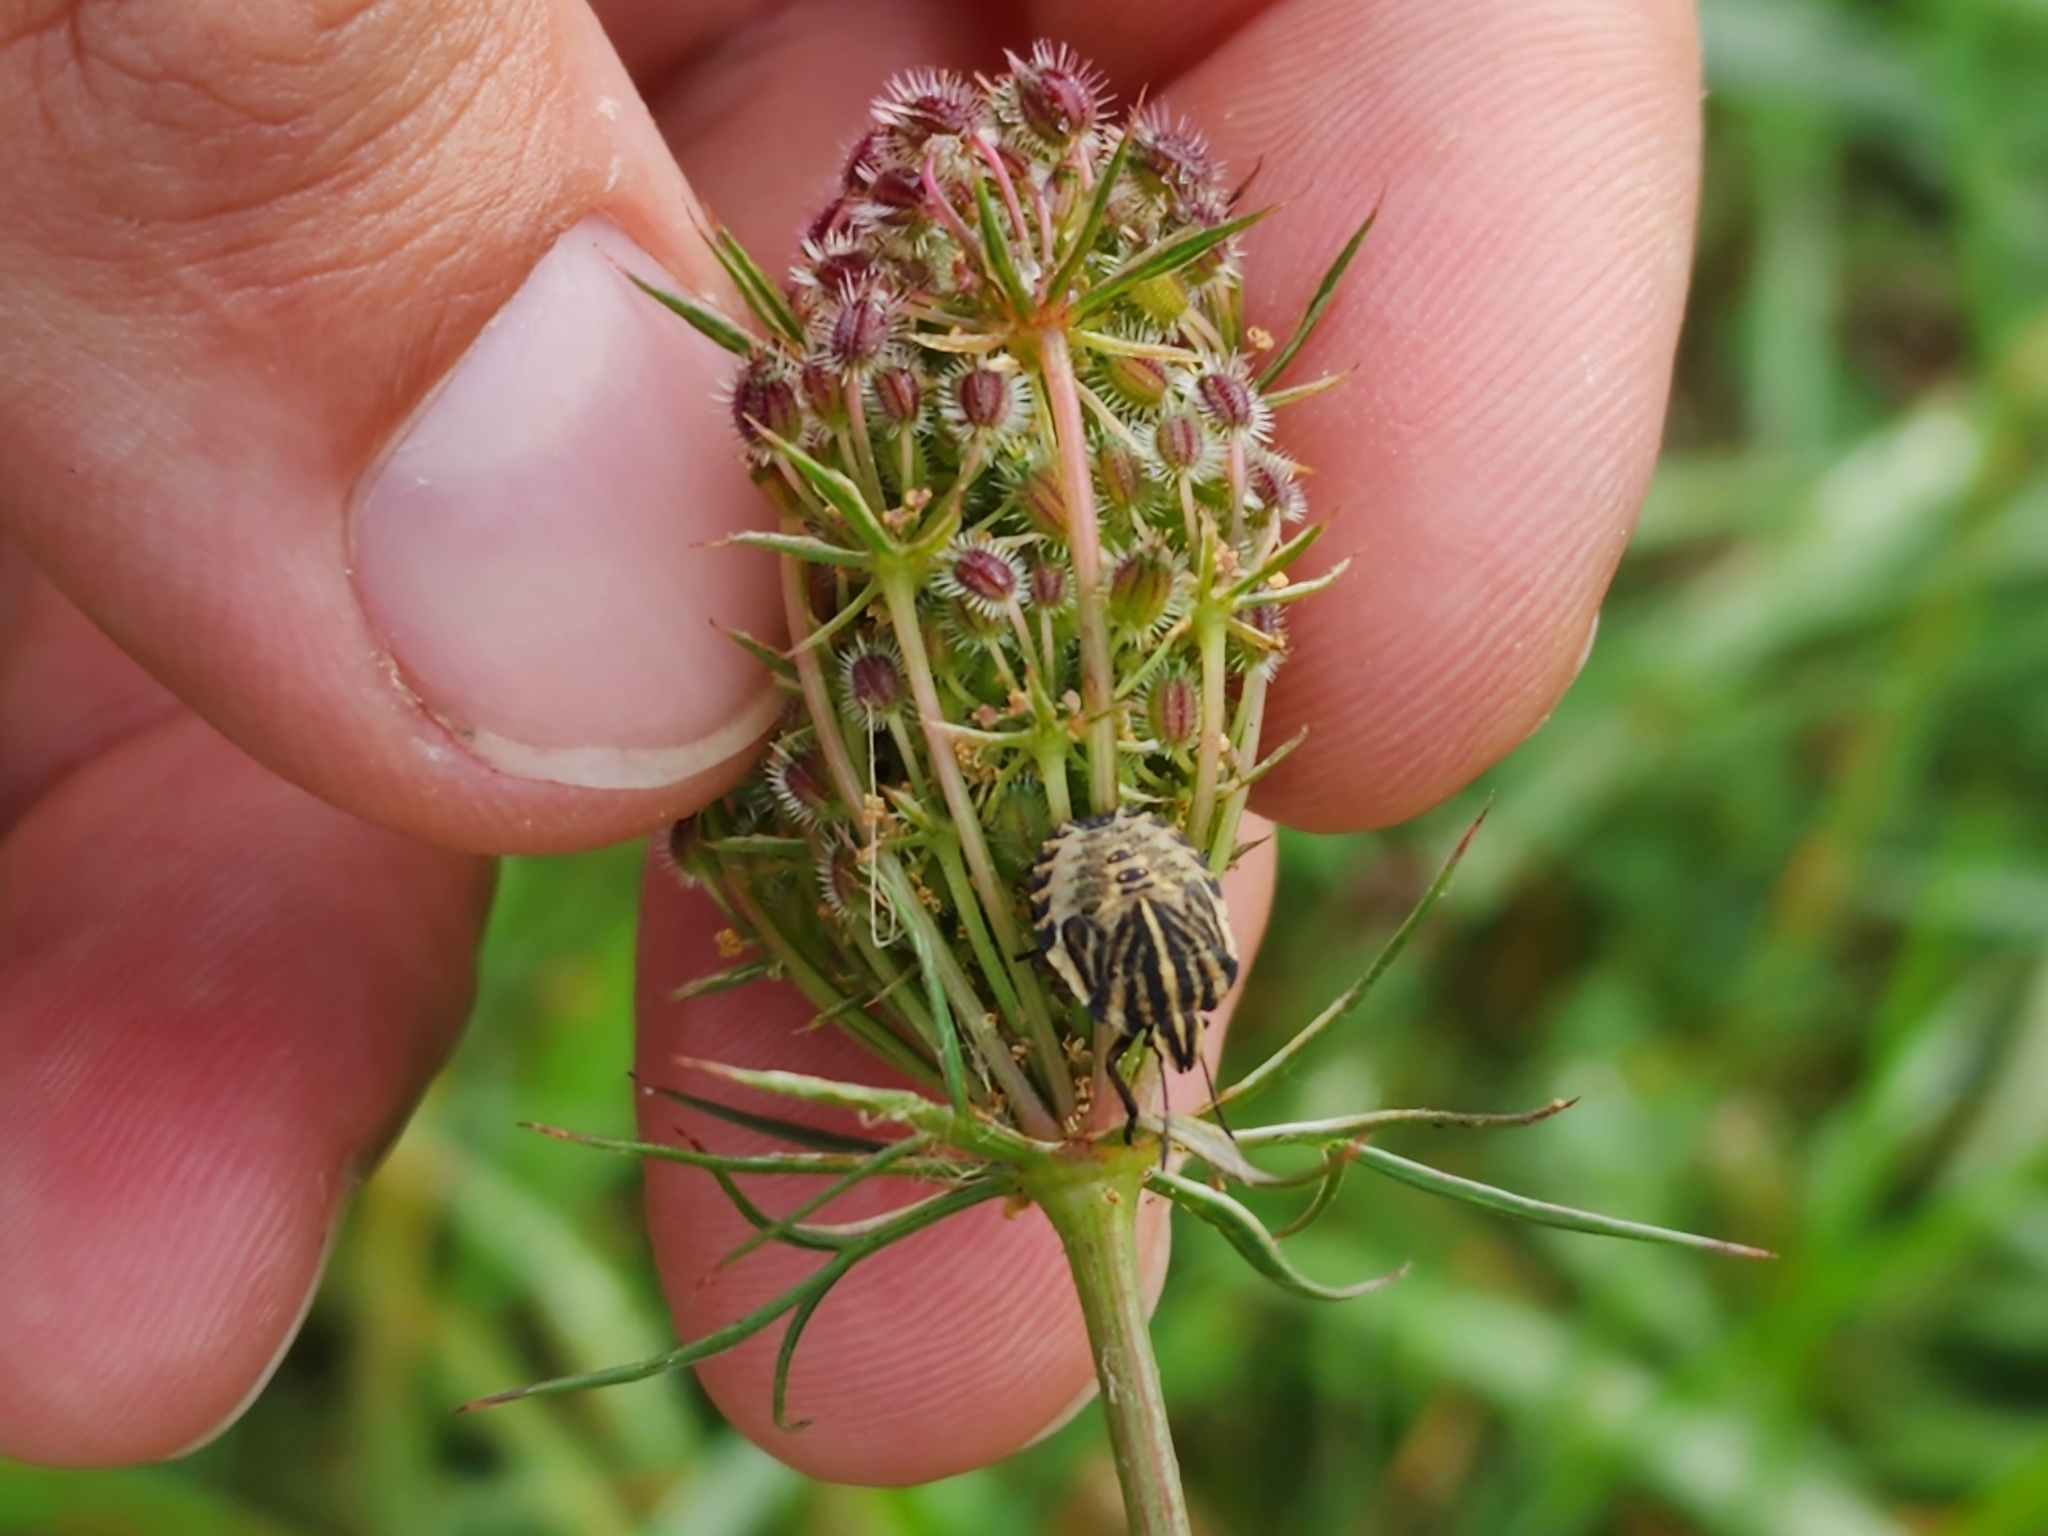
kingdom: Animalia
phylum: Arthropoda
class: Insecta
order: Hemiptera
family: Pentatomidae
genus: Graphosoma
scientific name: Graphosoma italicum
